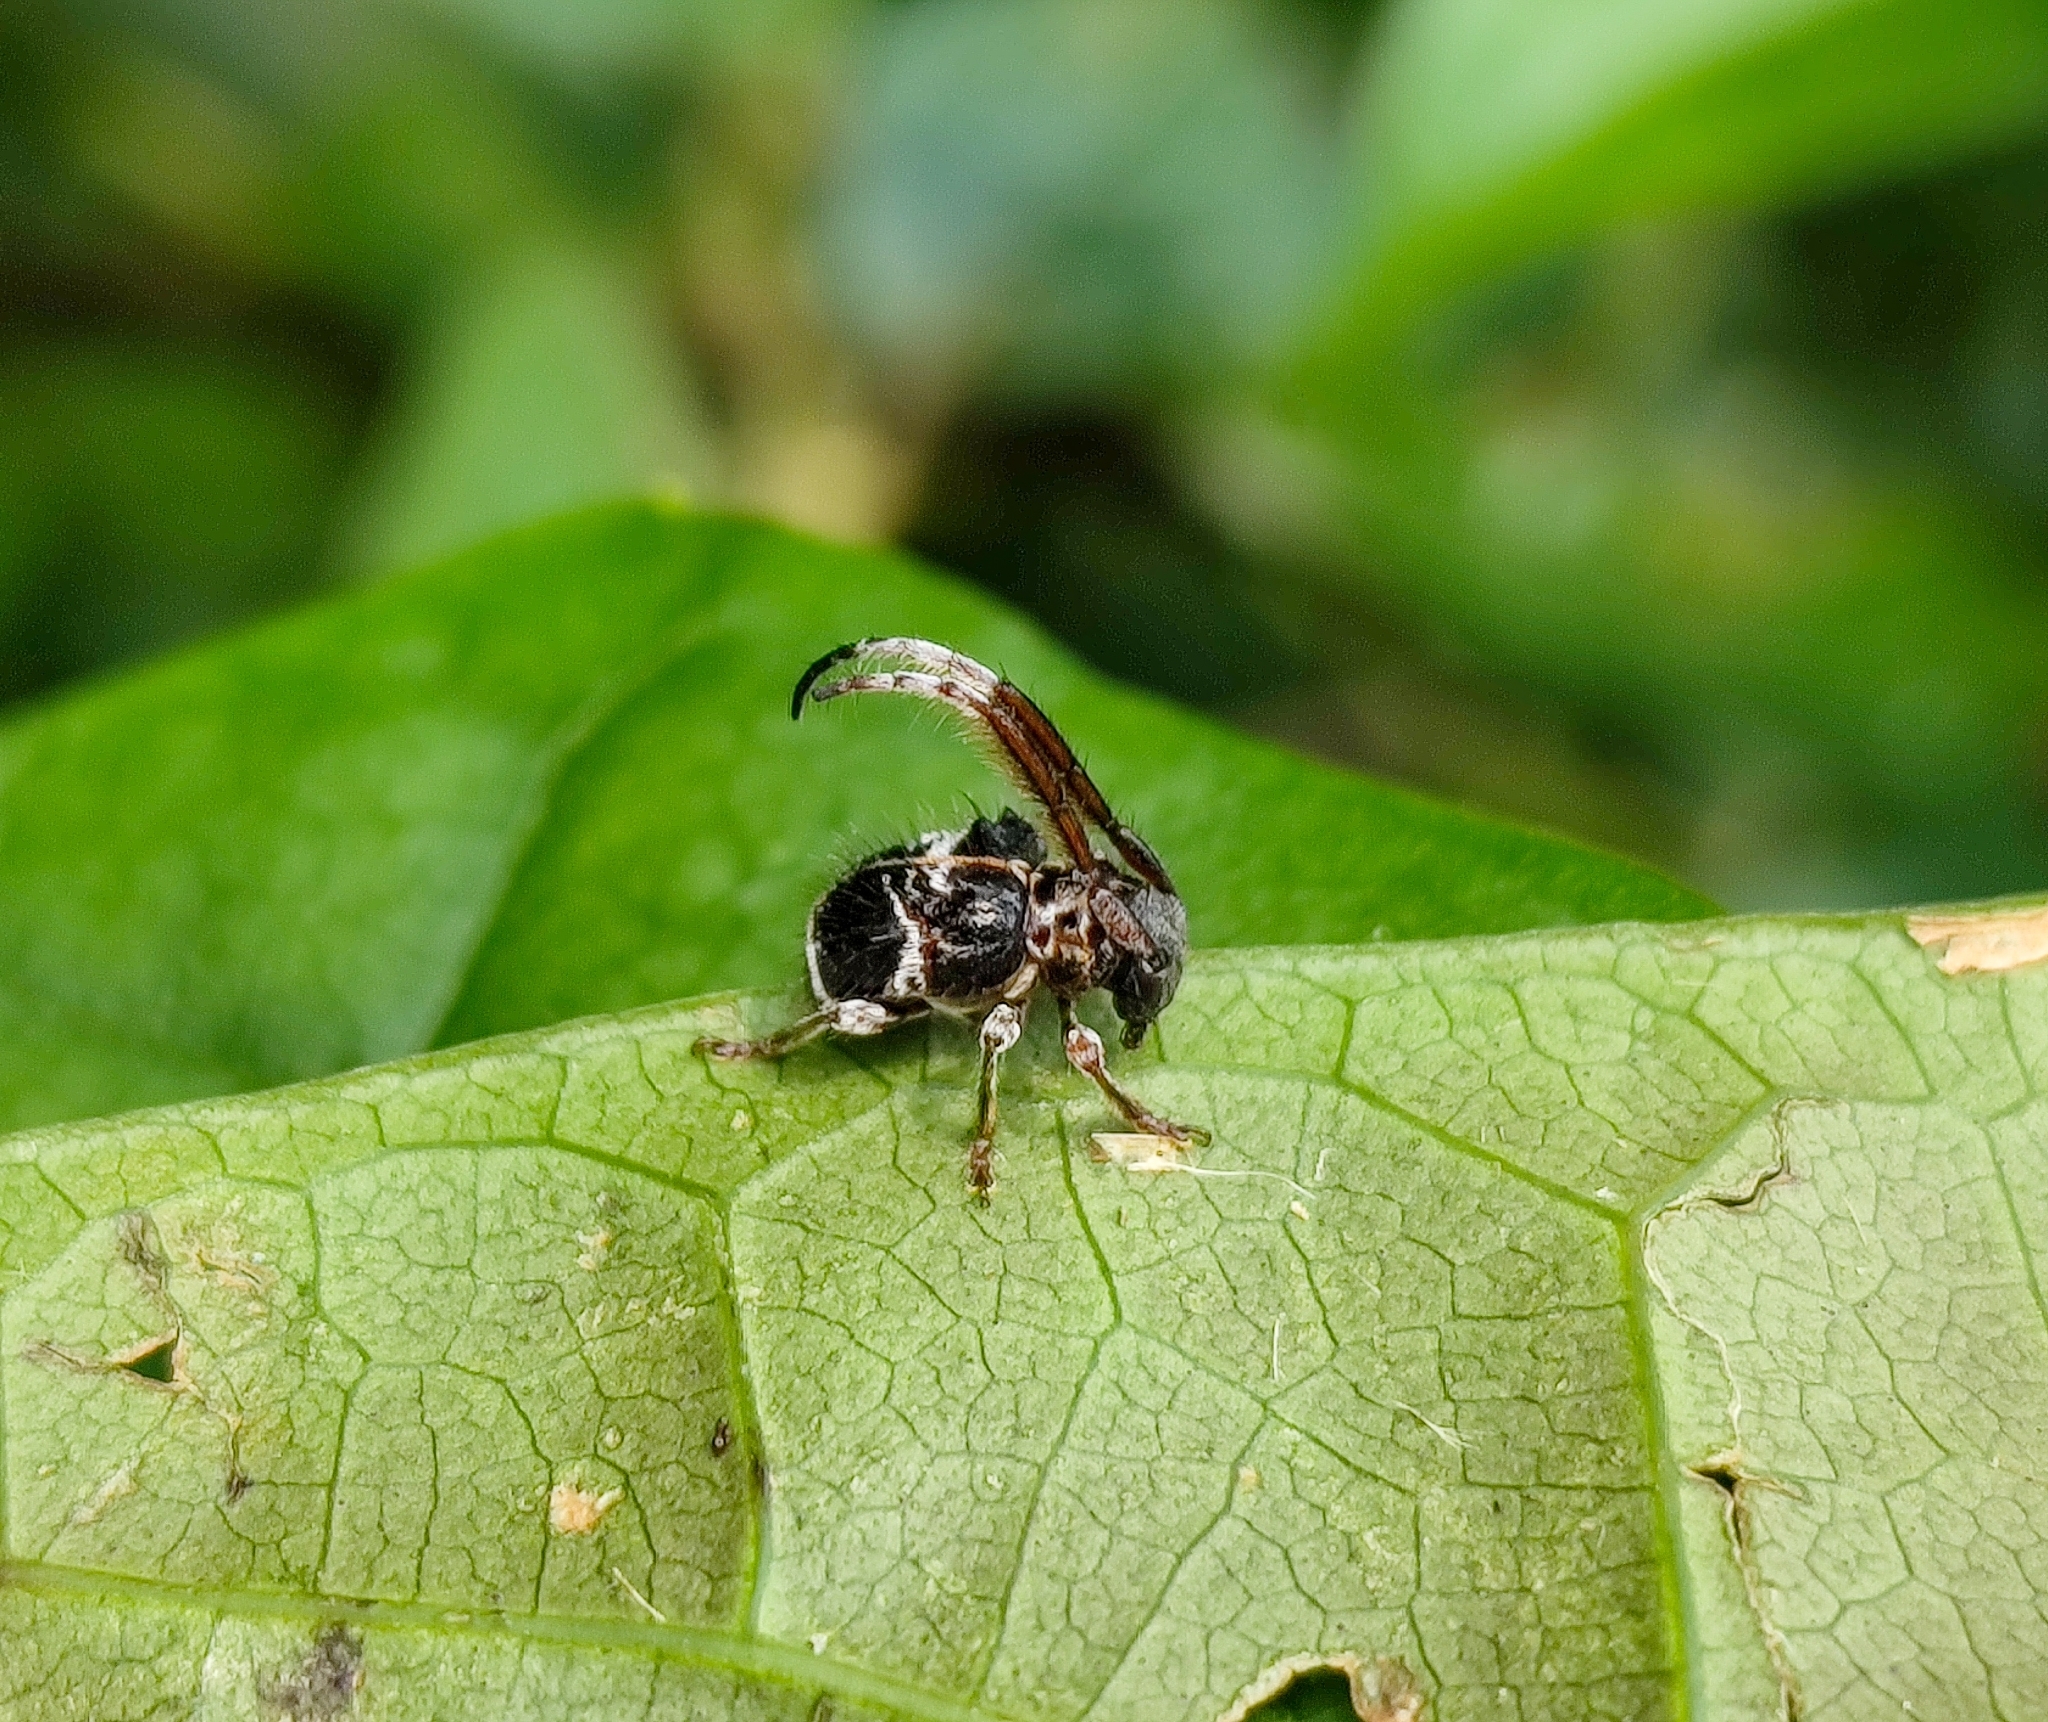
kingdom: Animalia
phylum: Arthropoda
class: Insecta
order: Coleoptera
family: Cerambycidae
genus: Tessarecphora
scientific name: Tessarecphora arachnoides
